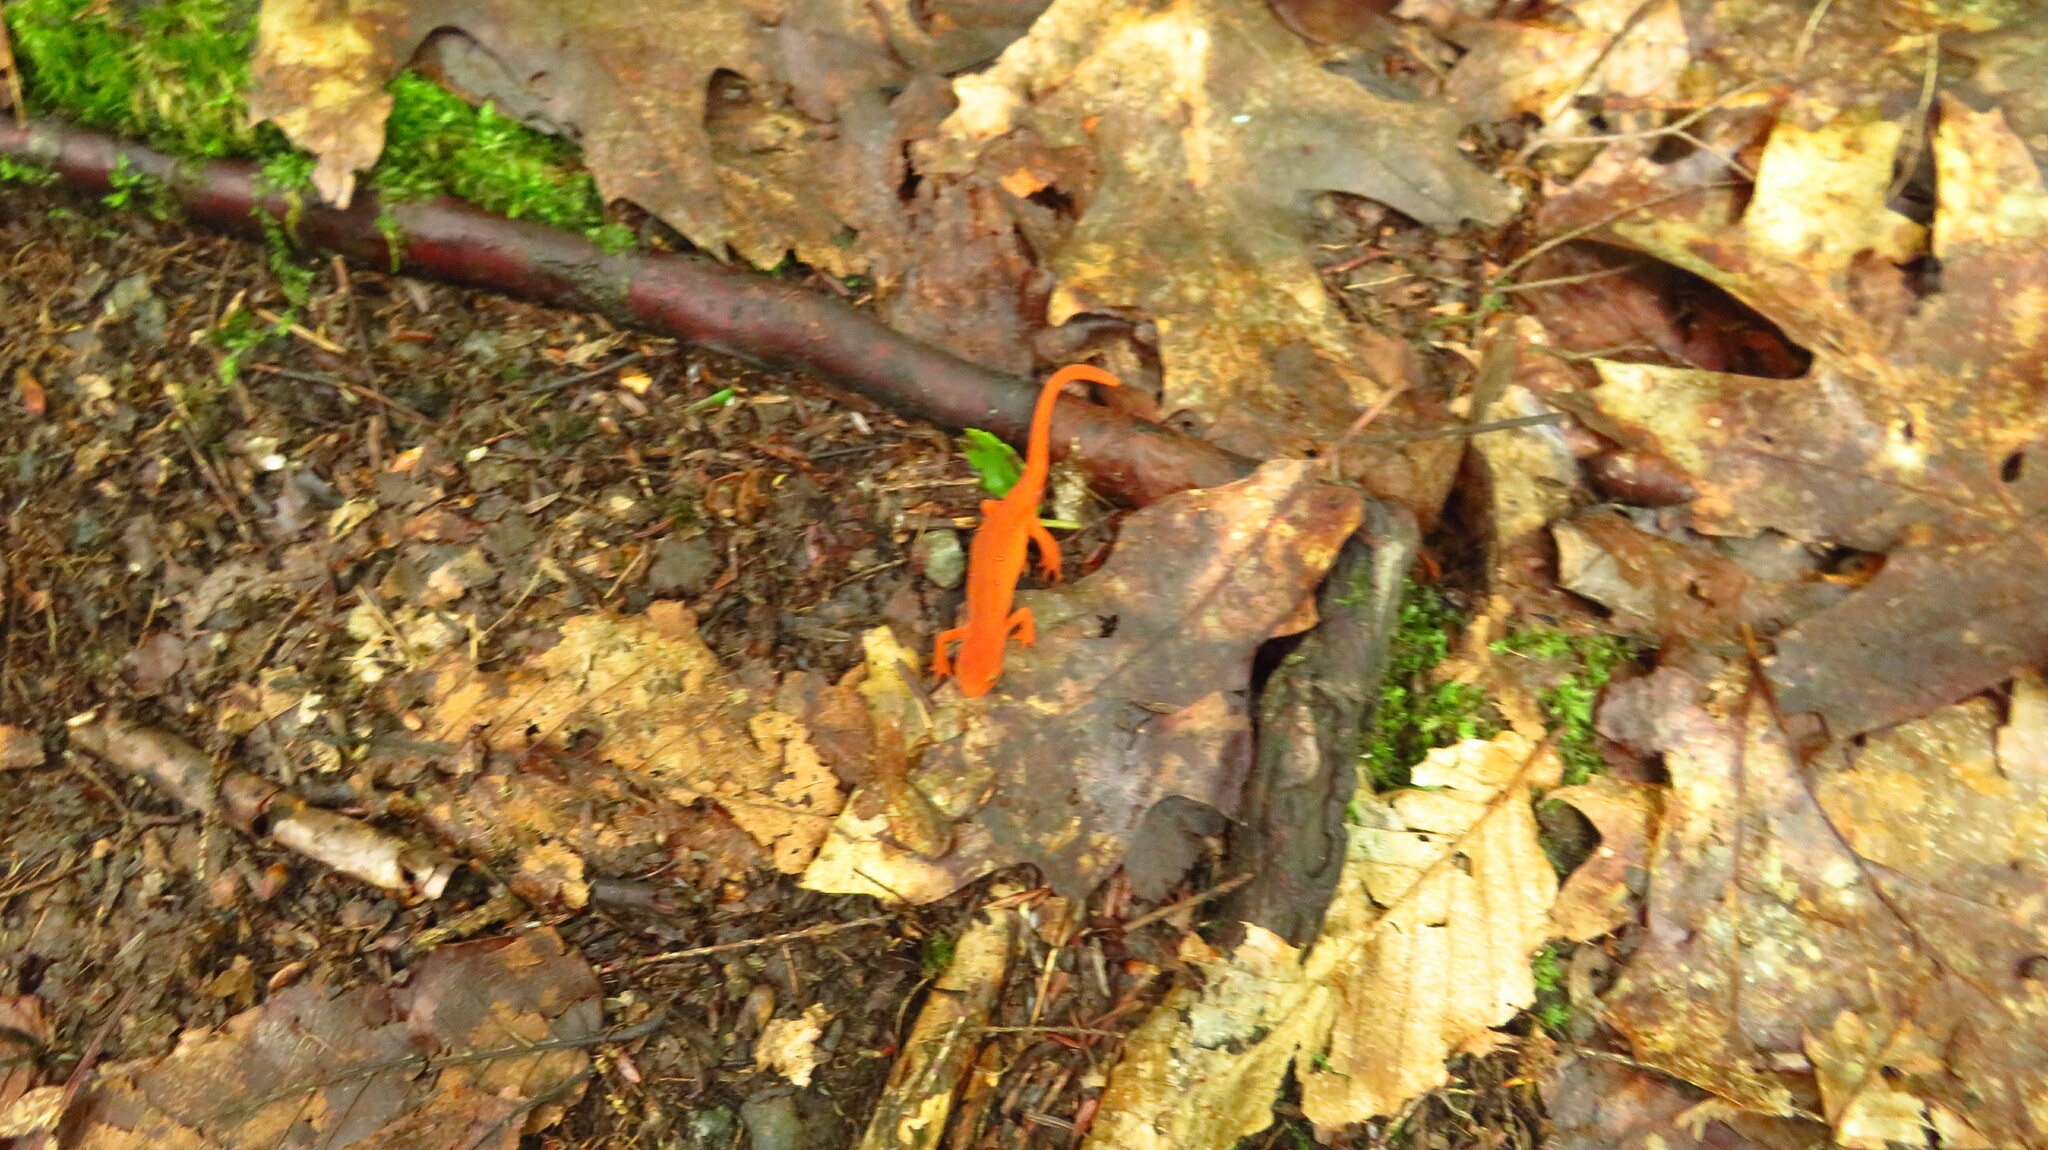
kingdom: Animalia
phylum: Chordata
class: Amphibia
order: Caudata
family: Salamandridae
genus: Notophthalmus
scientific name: Notophthalmus viridescens
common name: Eastern newt
